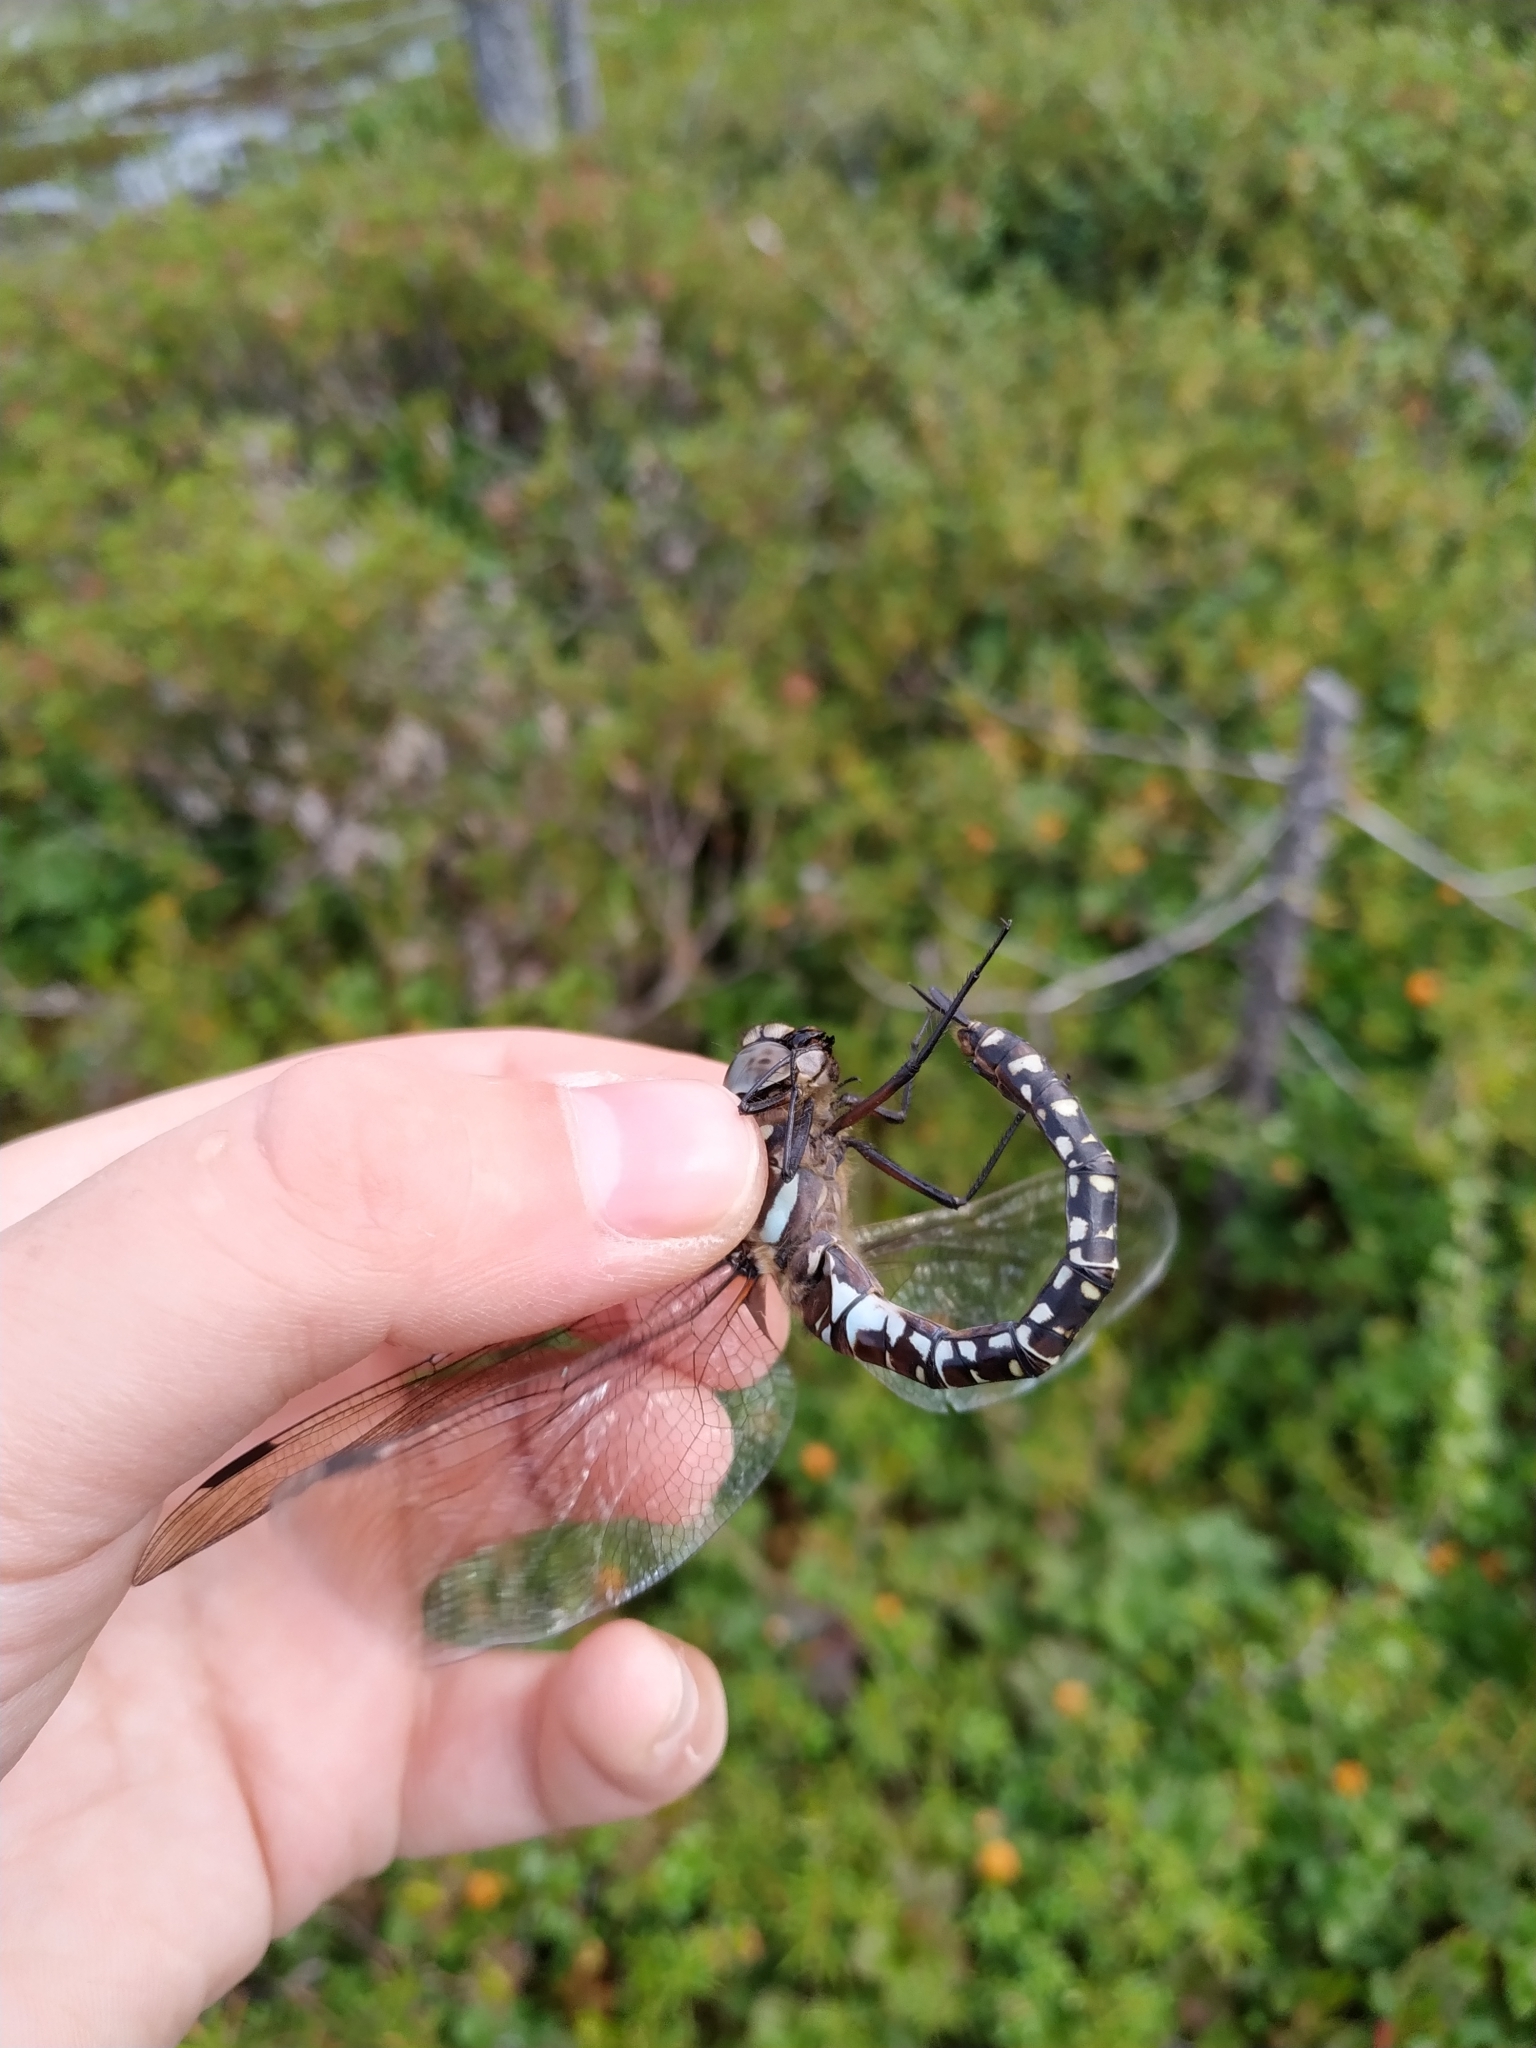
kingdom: Animalia
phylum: Arthropoda
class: Insecta
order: Odonata
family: Aeshnidae
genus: Aeshna
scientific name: Aeshna subarctica
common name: Subarctic darner
